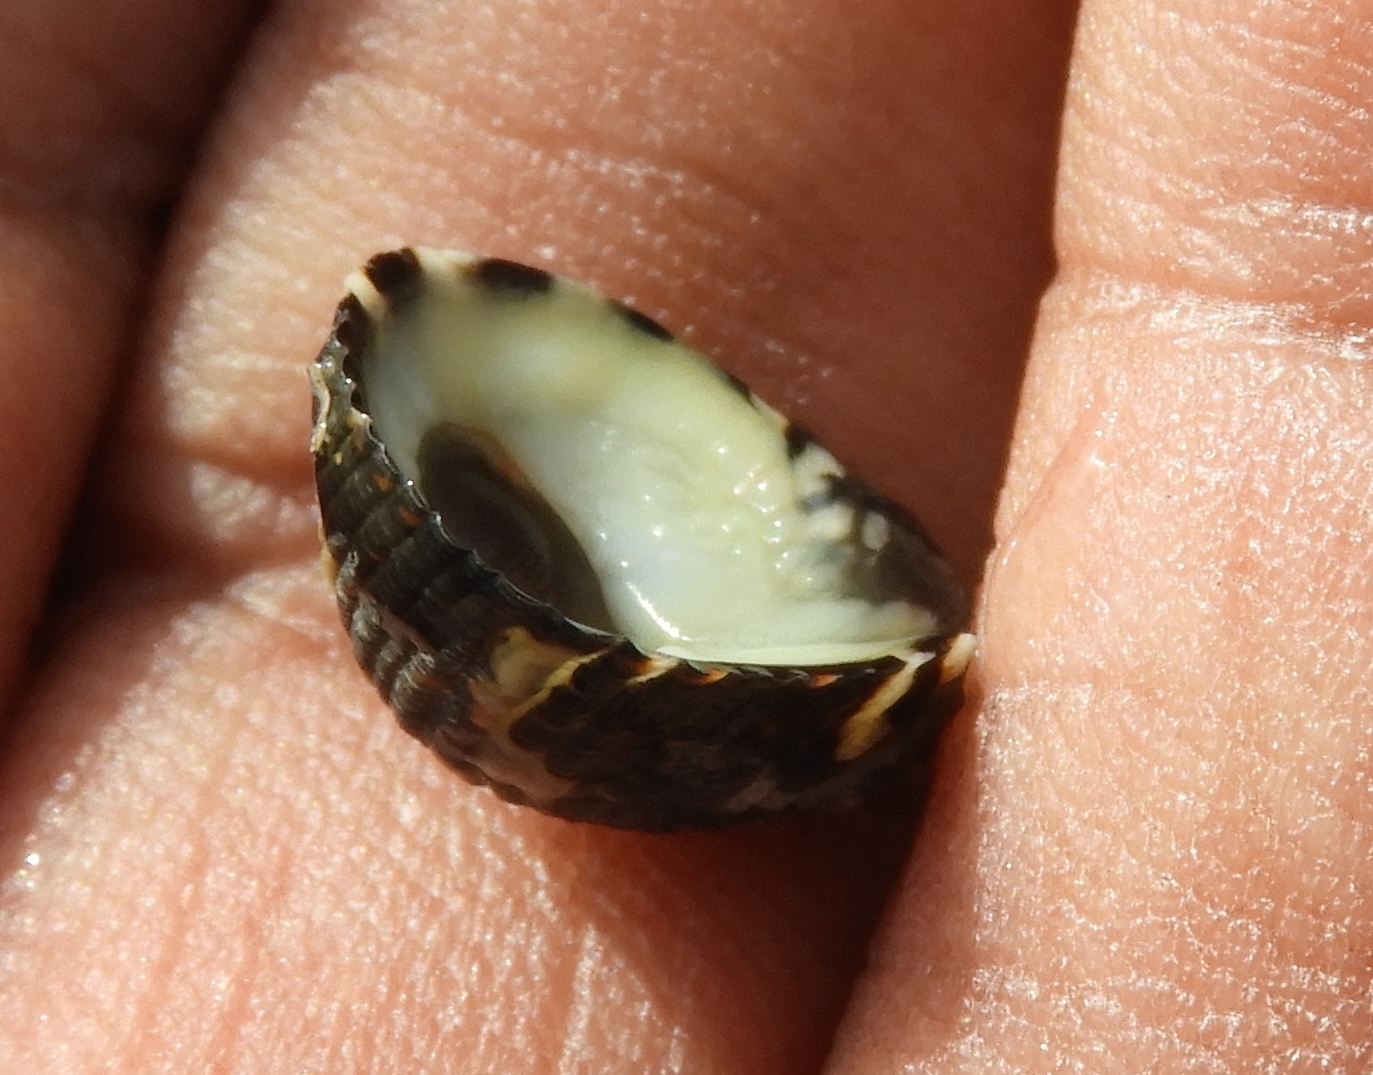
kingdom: Animalia
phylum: Mollusca
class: Gastropoda
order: Cycloneritida
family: Neritidae
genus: Nerita
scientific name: Nerita funiculata
